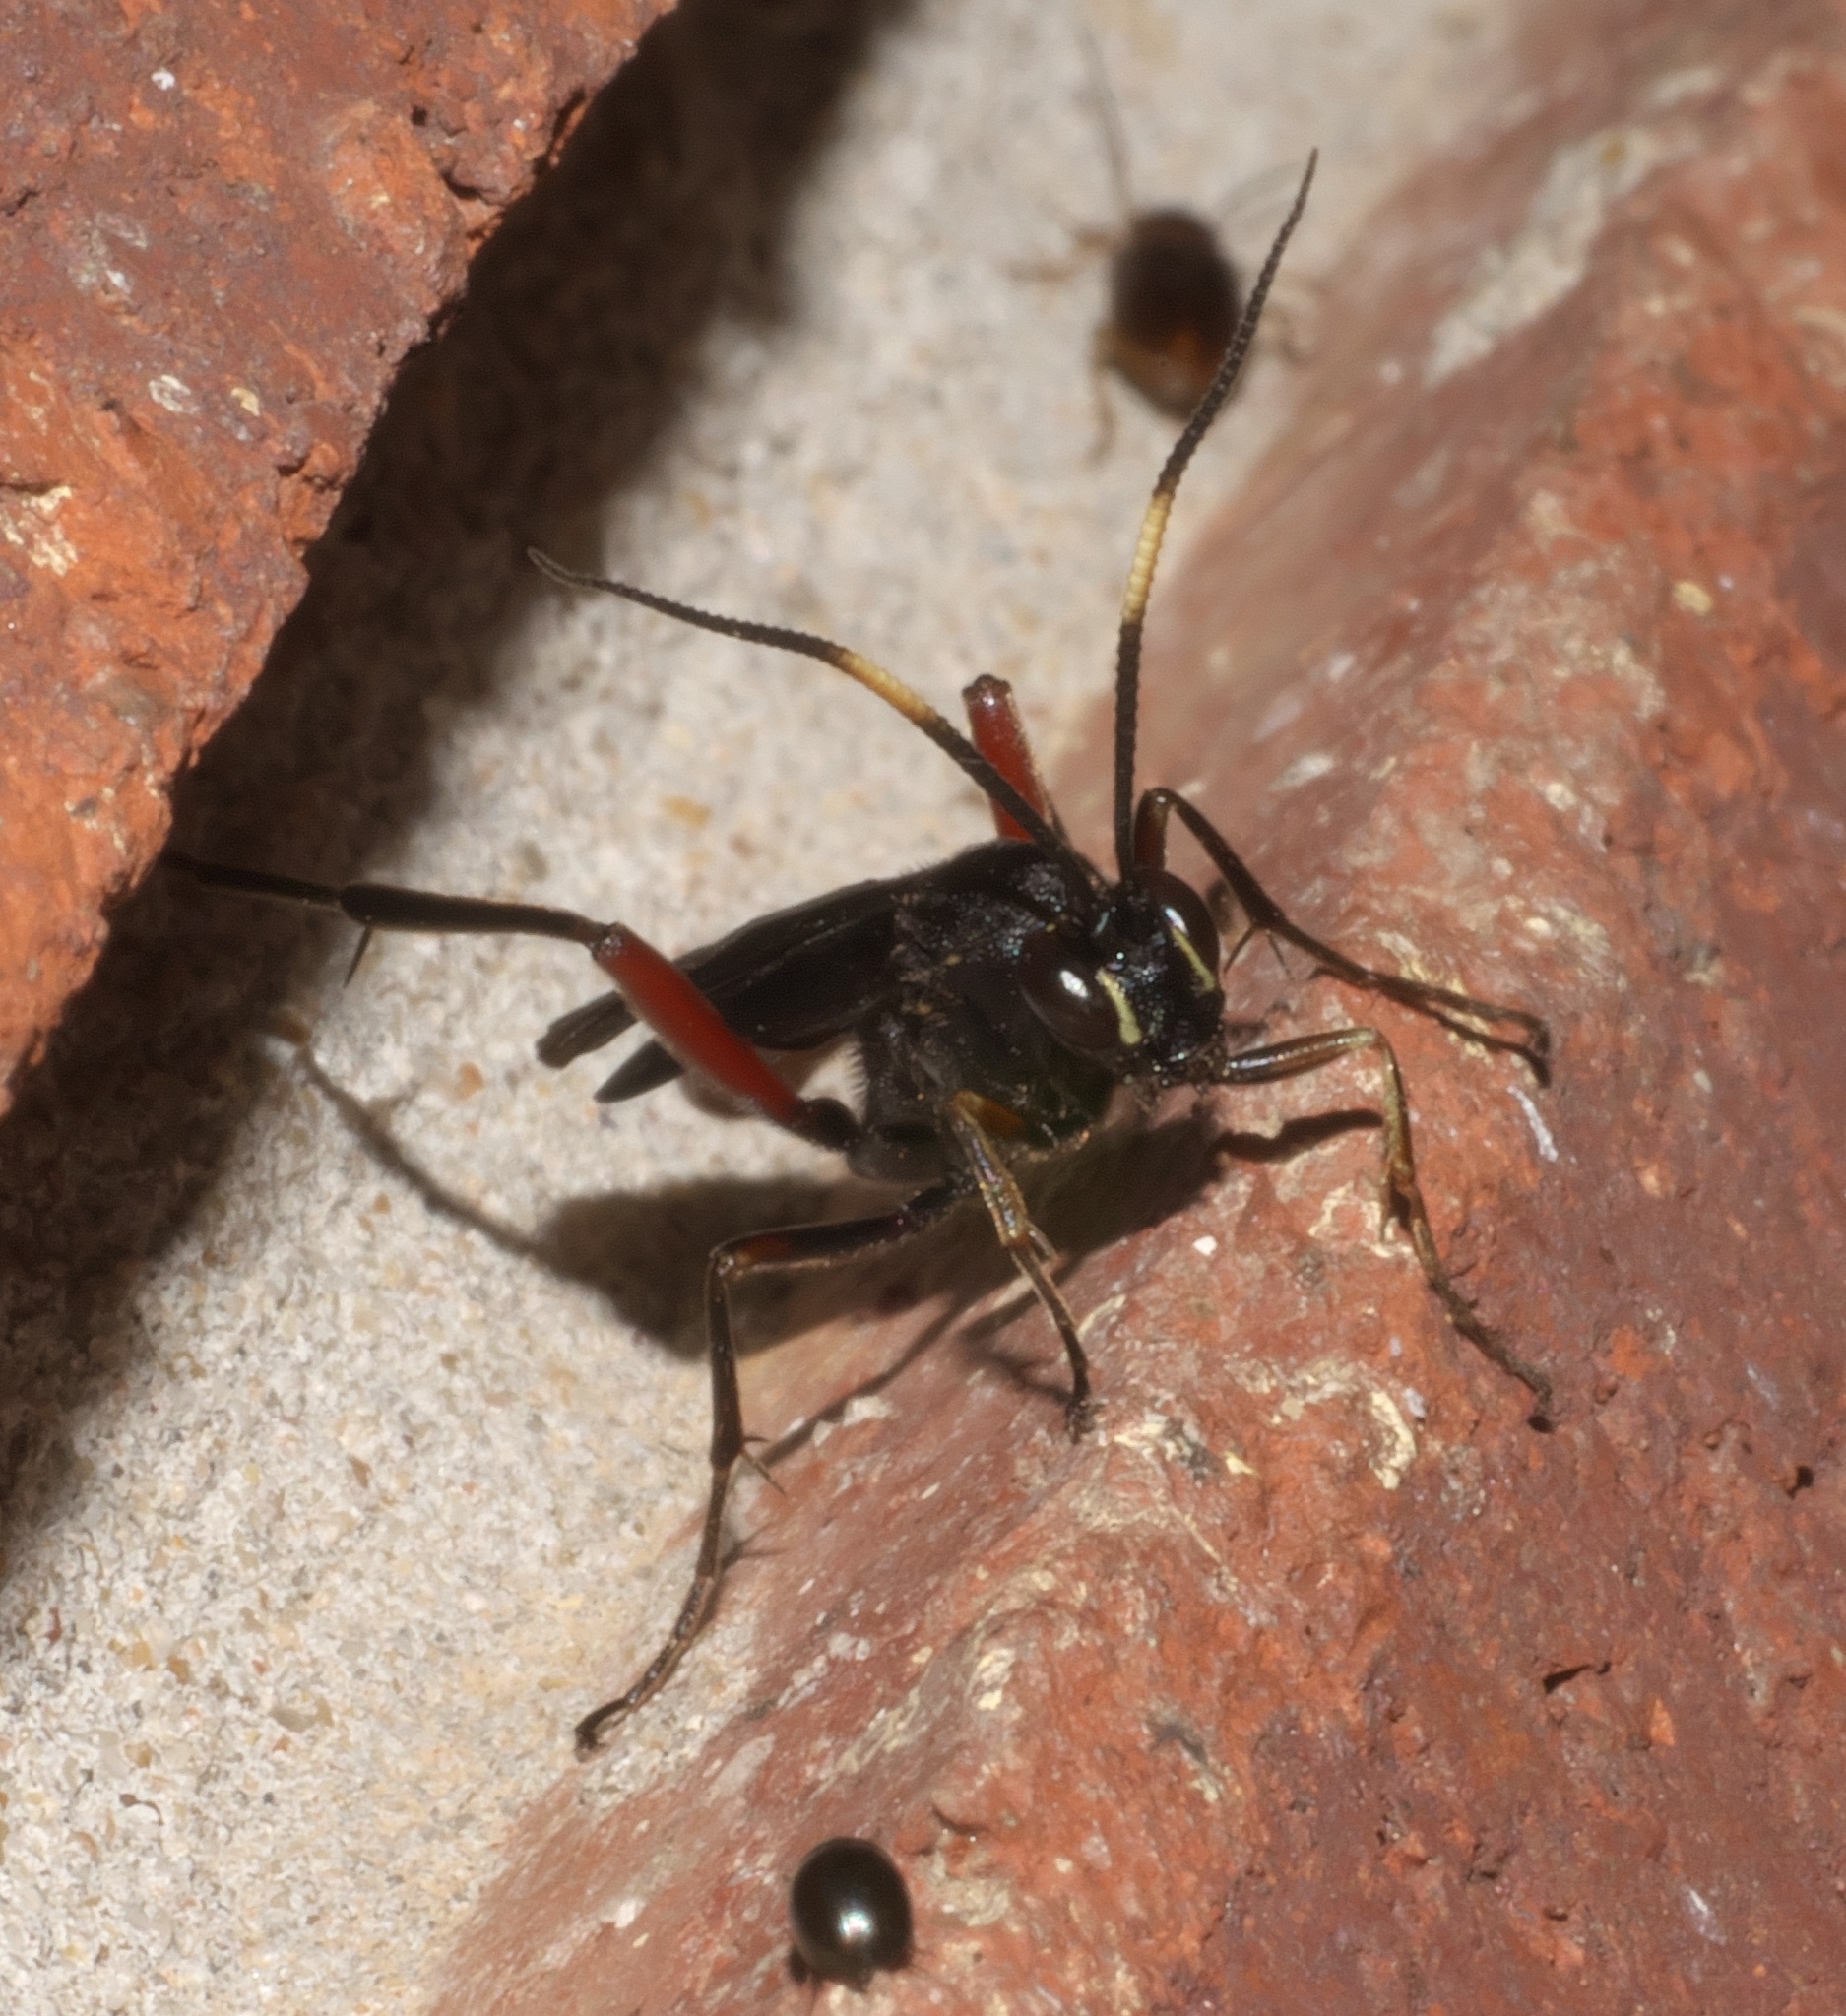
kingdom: Animalia
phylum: Arthropoda
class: Insecta
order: Hymenoptera
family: Ichneumonidae
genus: Limonethe
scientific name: Limonethe maurator
